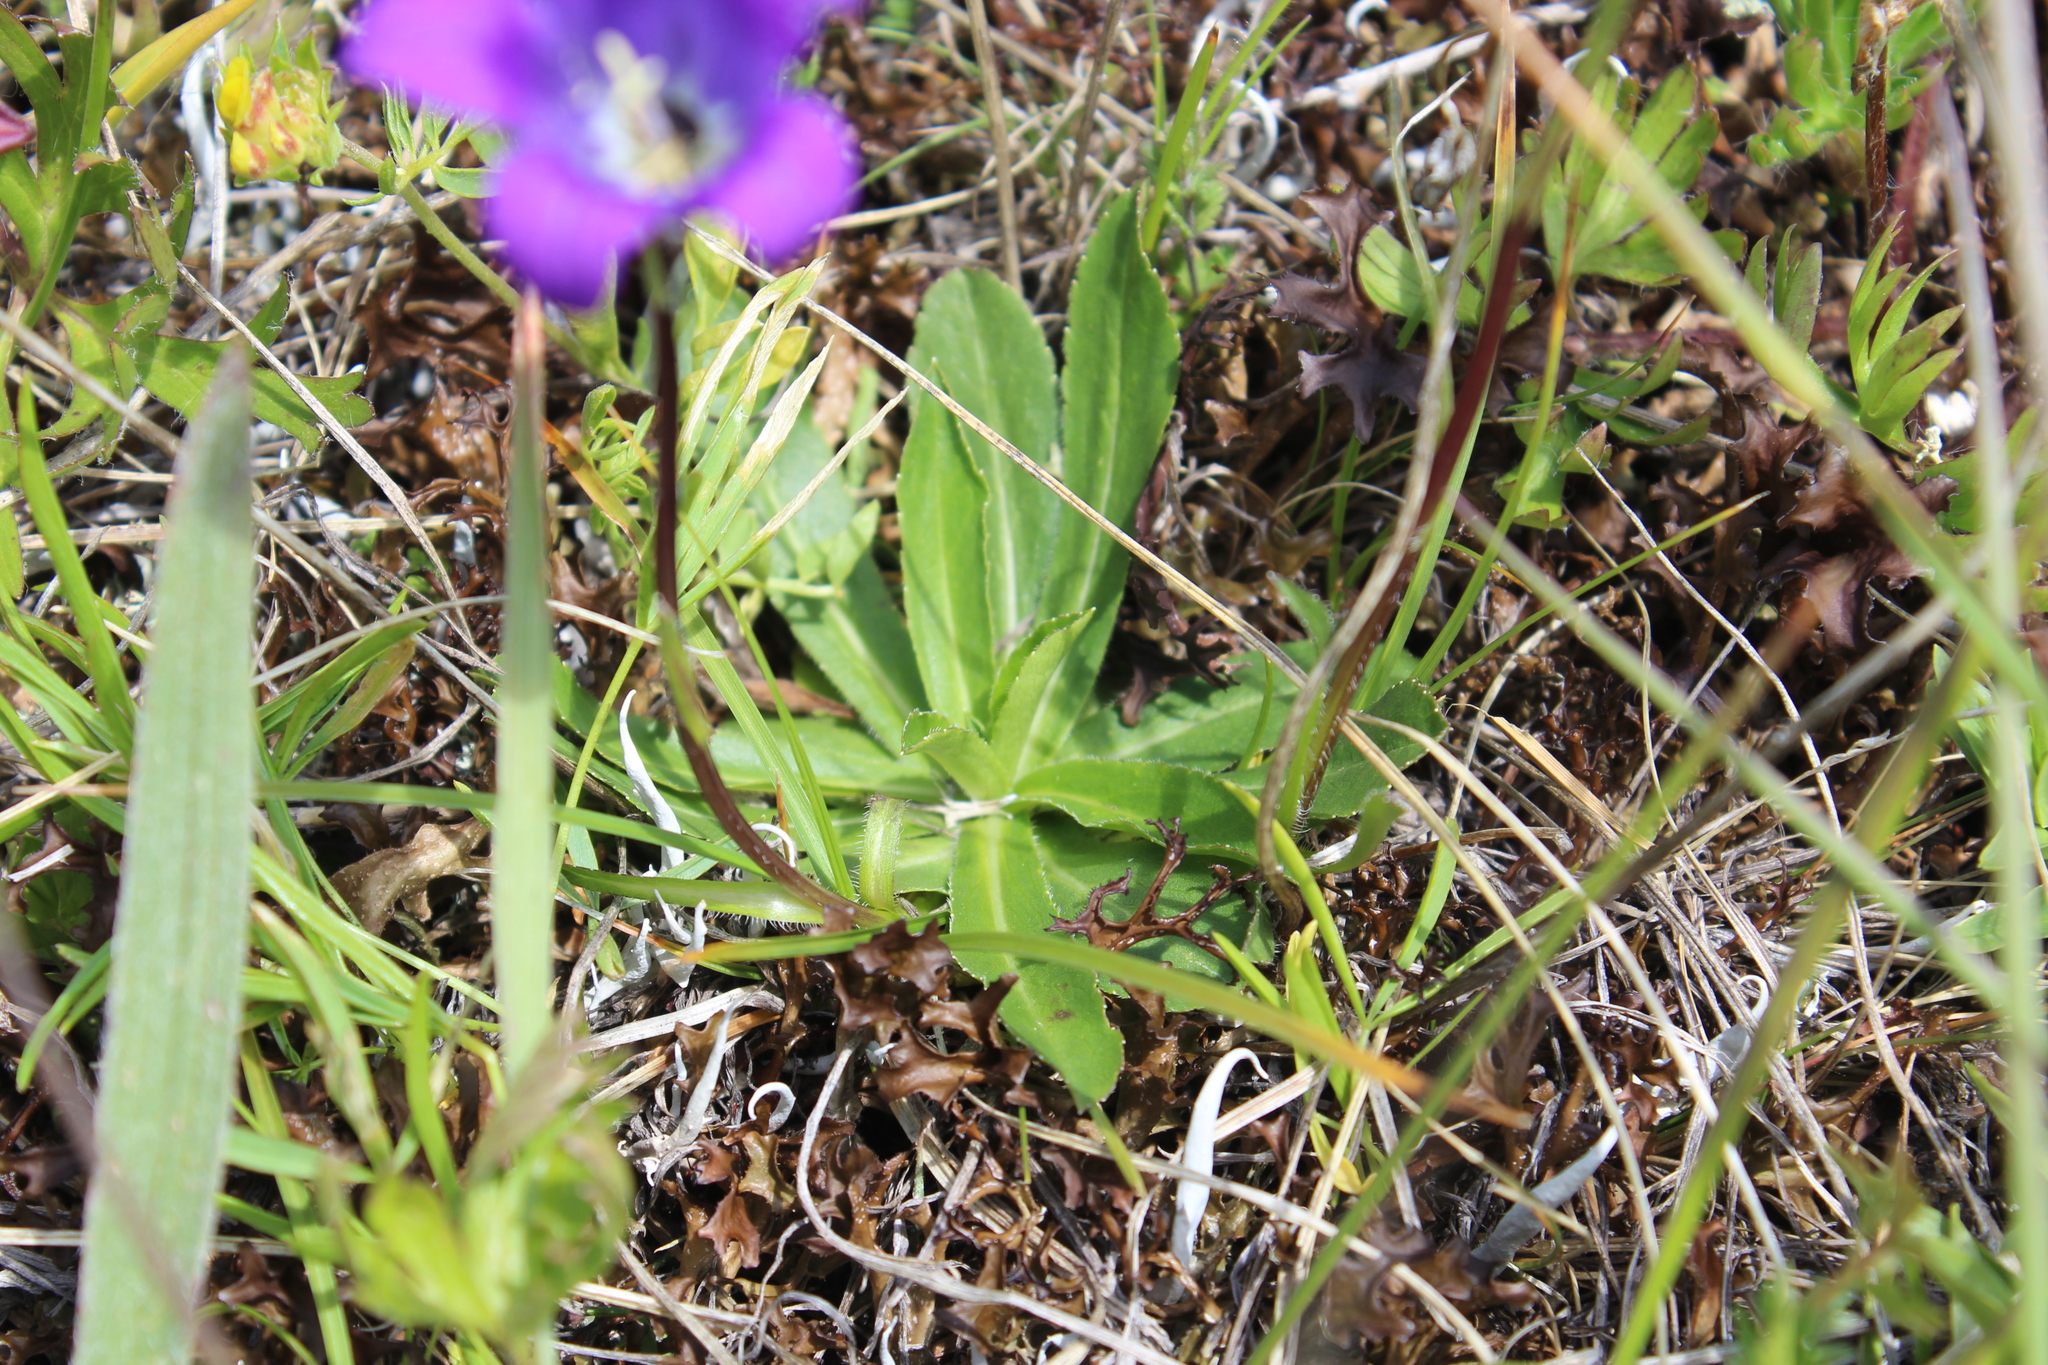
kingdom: Plantae
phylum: Tracheophyta
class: Magnoliopsida
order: Asterales
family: Campanulaceae
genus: Campanula
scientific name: Campanula ciliata
